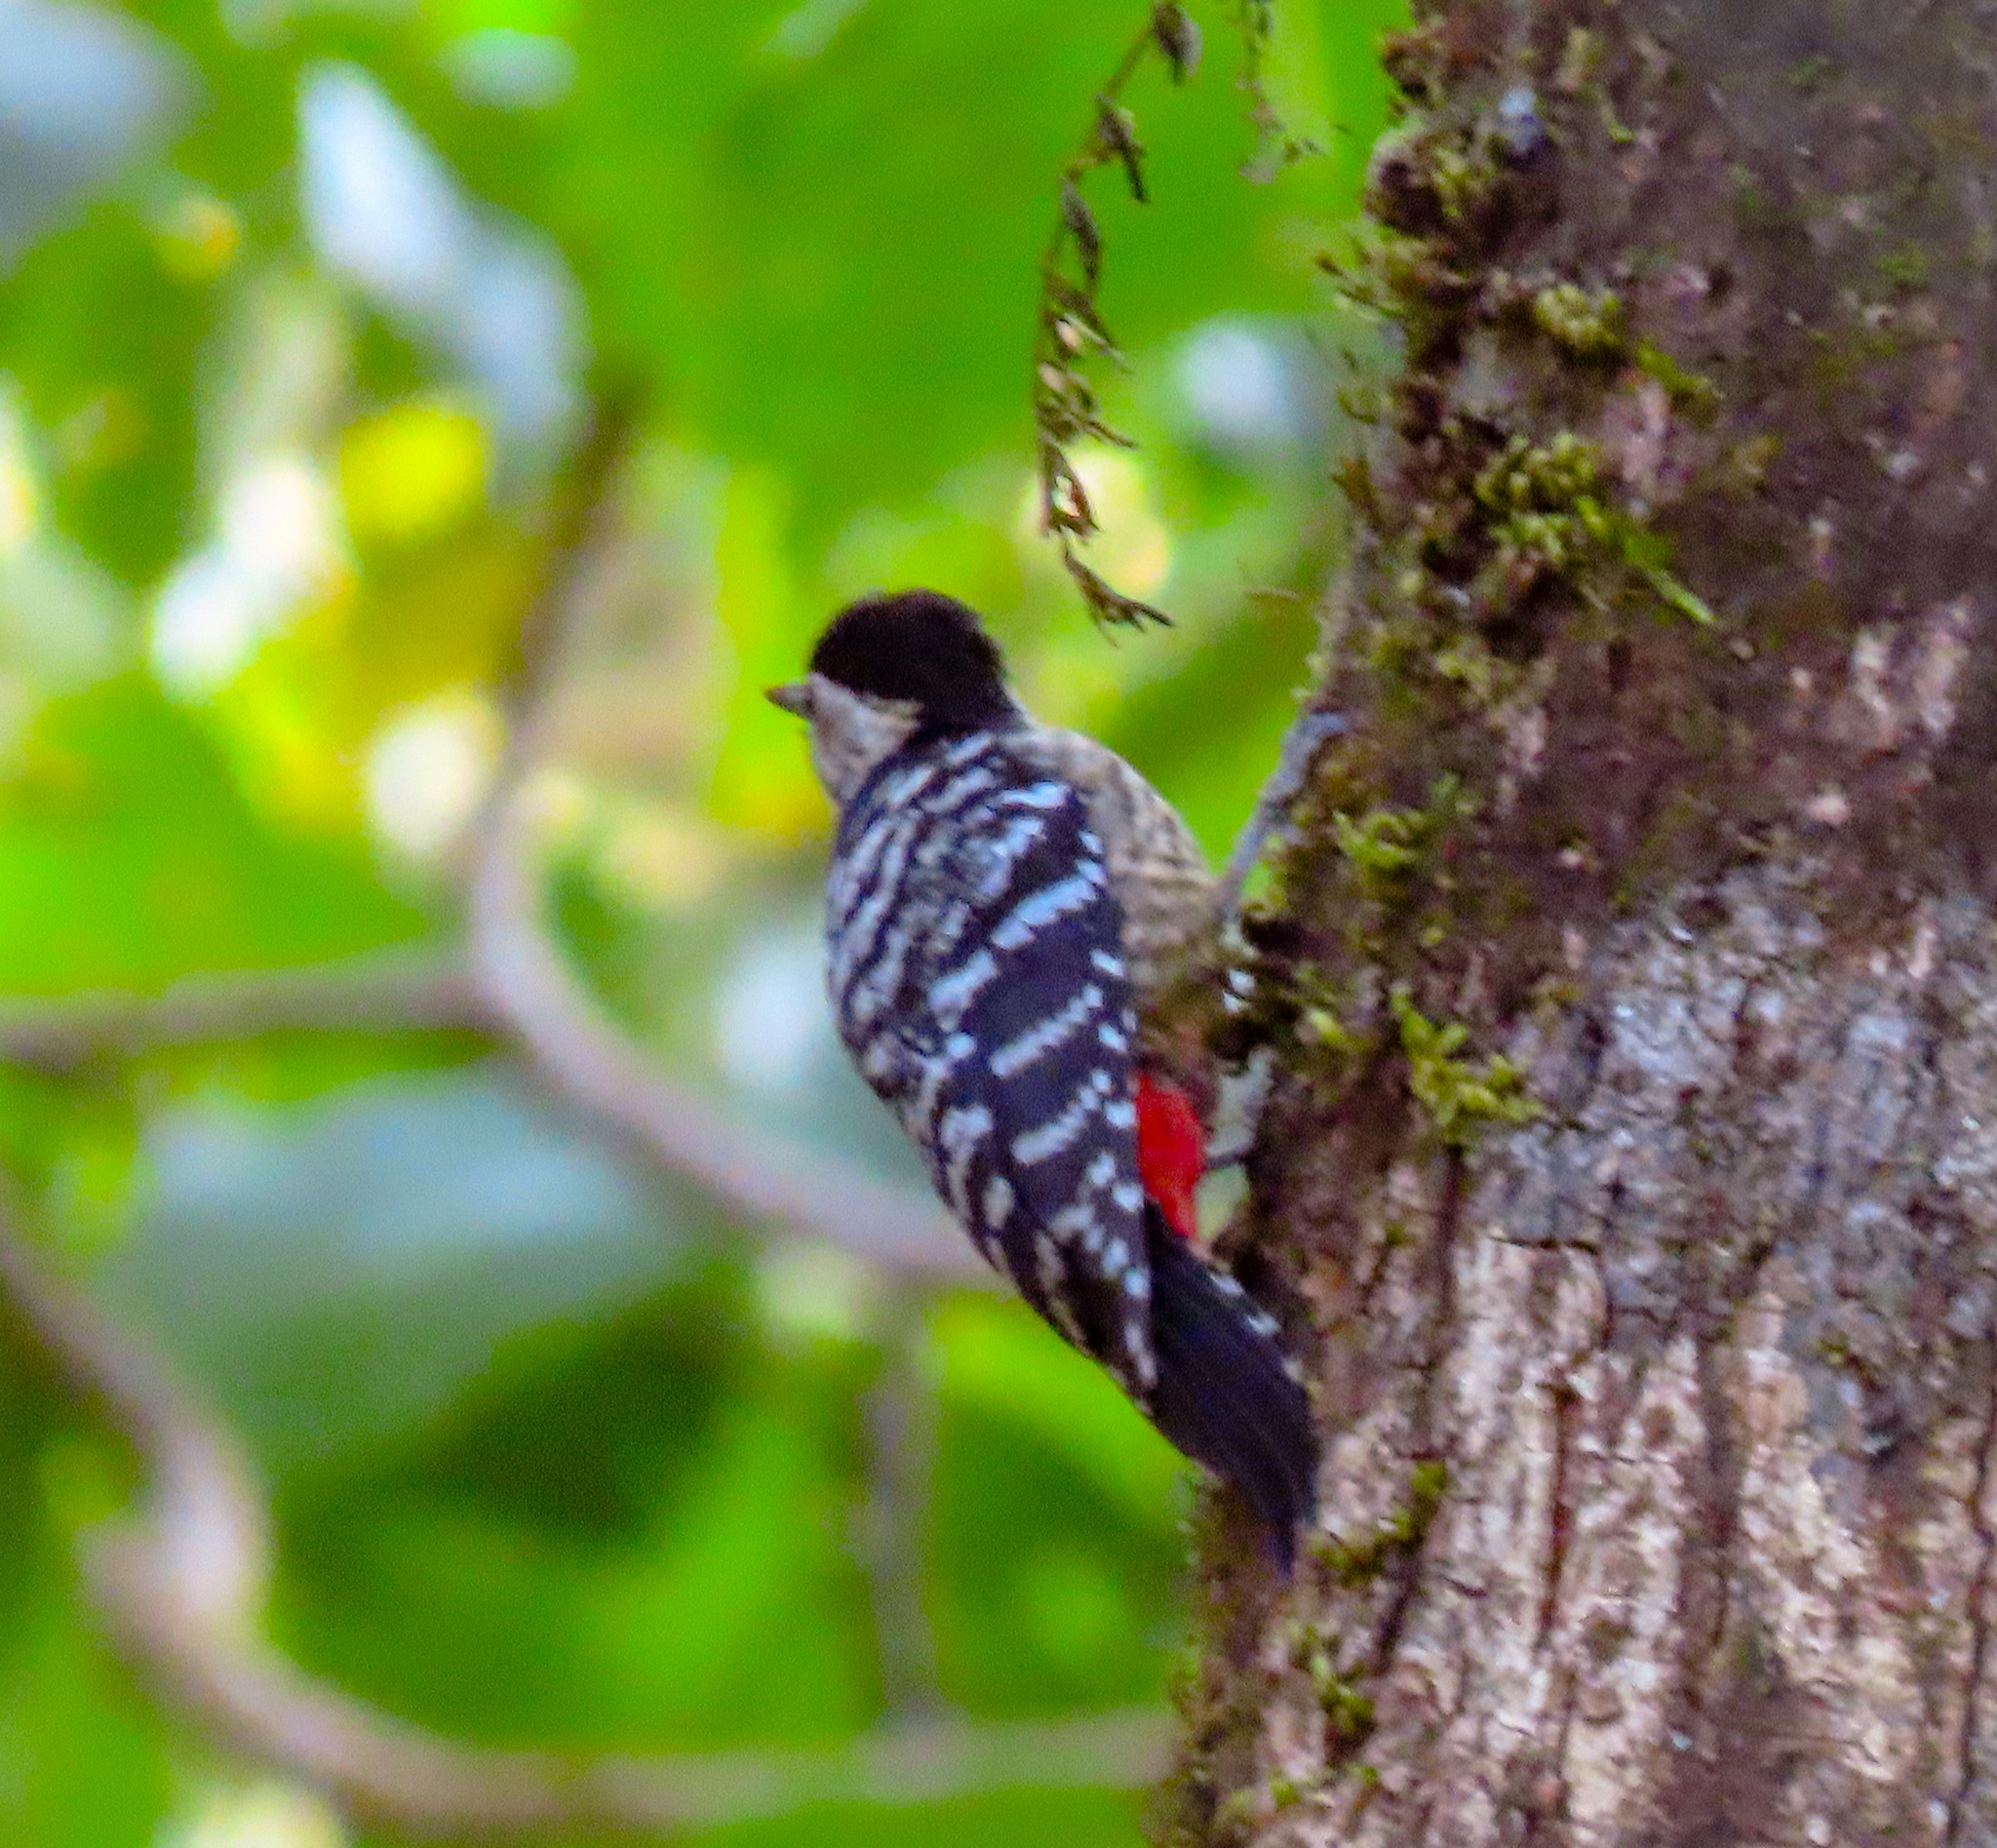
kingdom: Animalia
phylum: Chordata
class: Aves
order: Piciformes
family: Picidae
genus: Dendrocopos
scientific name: Dendrocopos atratus
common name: Stripe-breasted woodpecker
